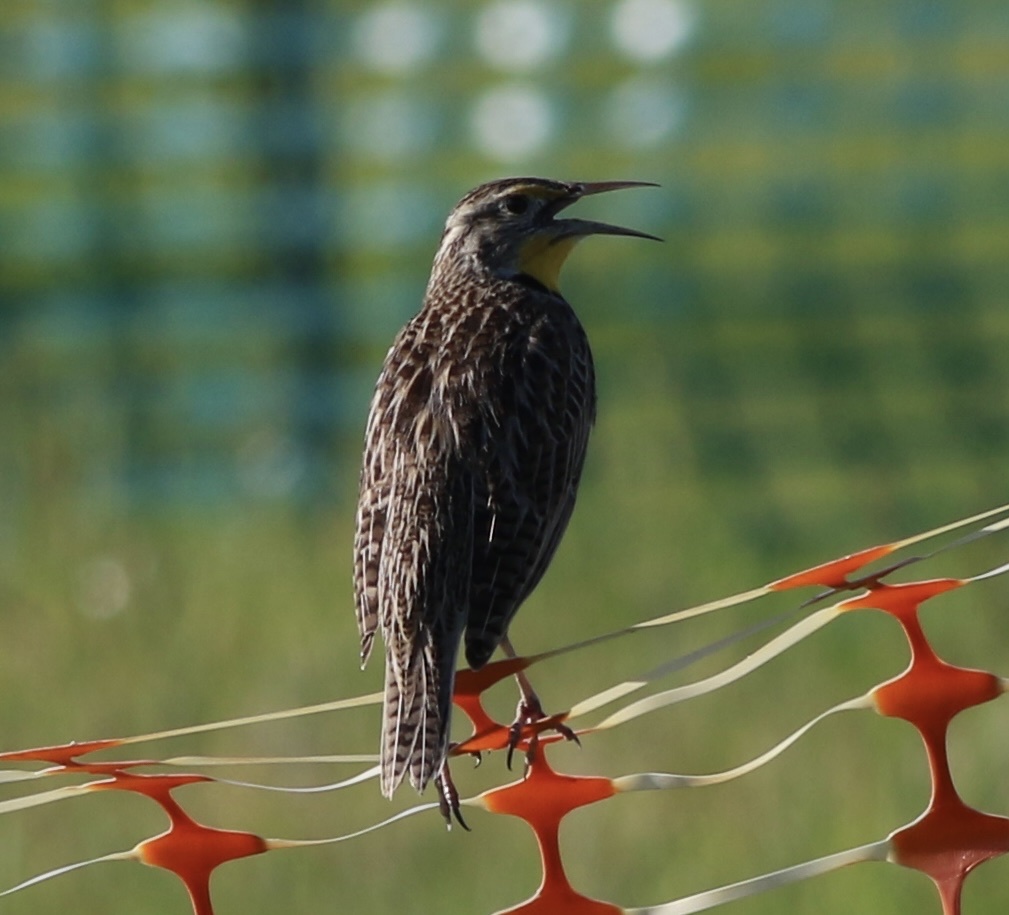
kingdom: Animalia
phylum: Chordata
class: Aves
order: Passeriformes
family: Icteridae
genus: Sturnella
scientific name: Sturnella neglecta
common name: Western meadowlark
